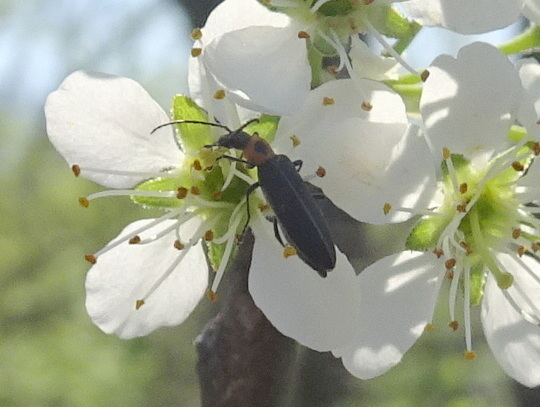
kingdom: Animalia
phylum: Arthropoda
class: Insecta
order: Coleoptera
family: Oedemeridae
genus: Ischnomera
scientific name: Ischnomera
